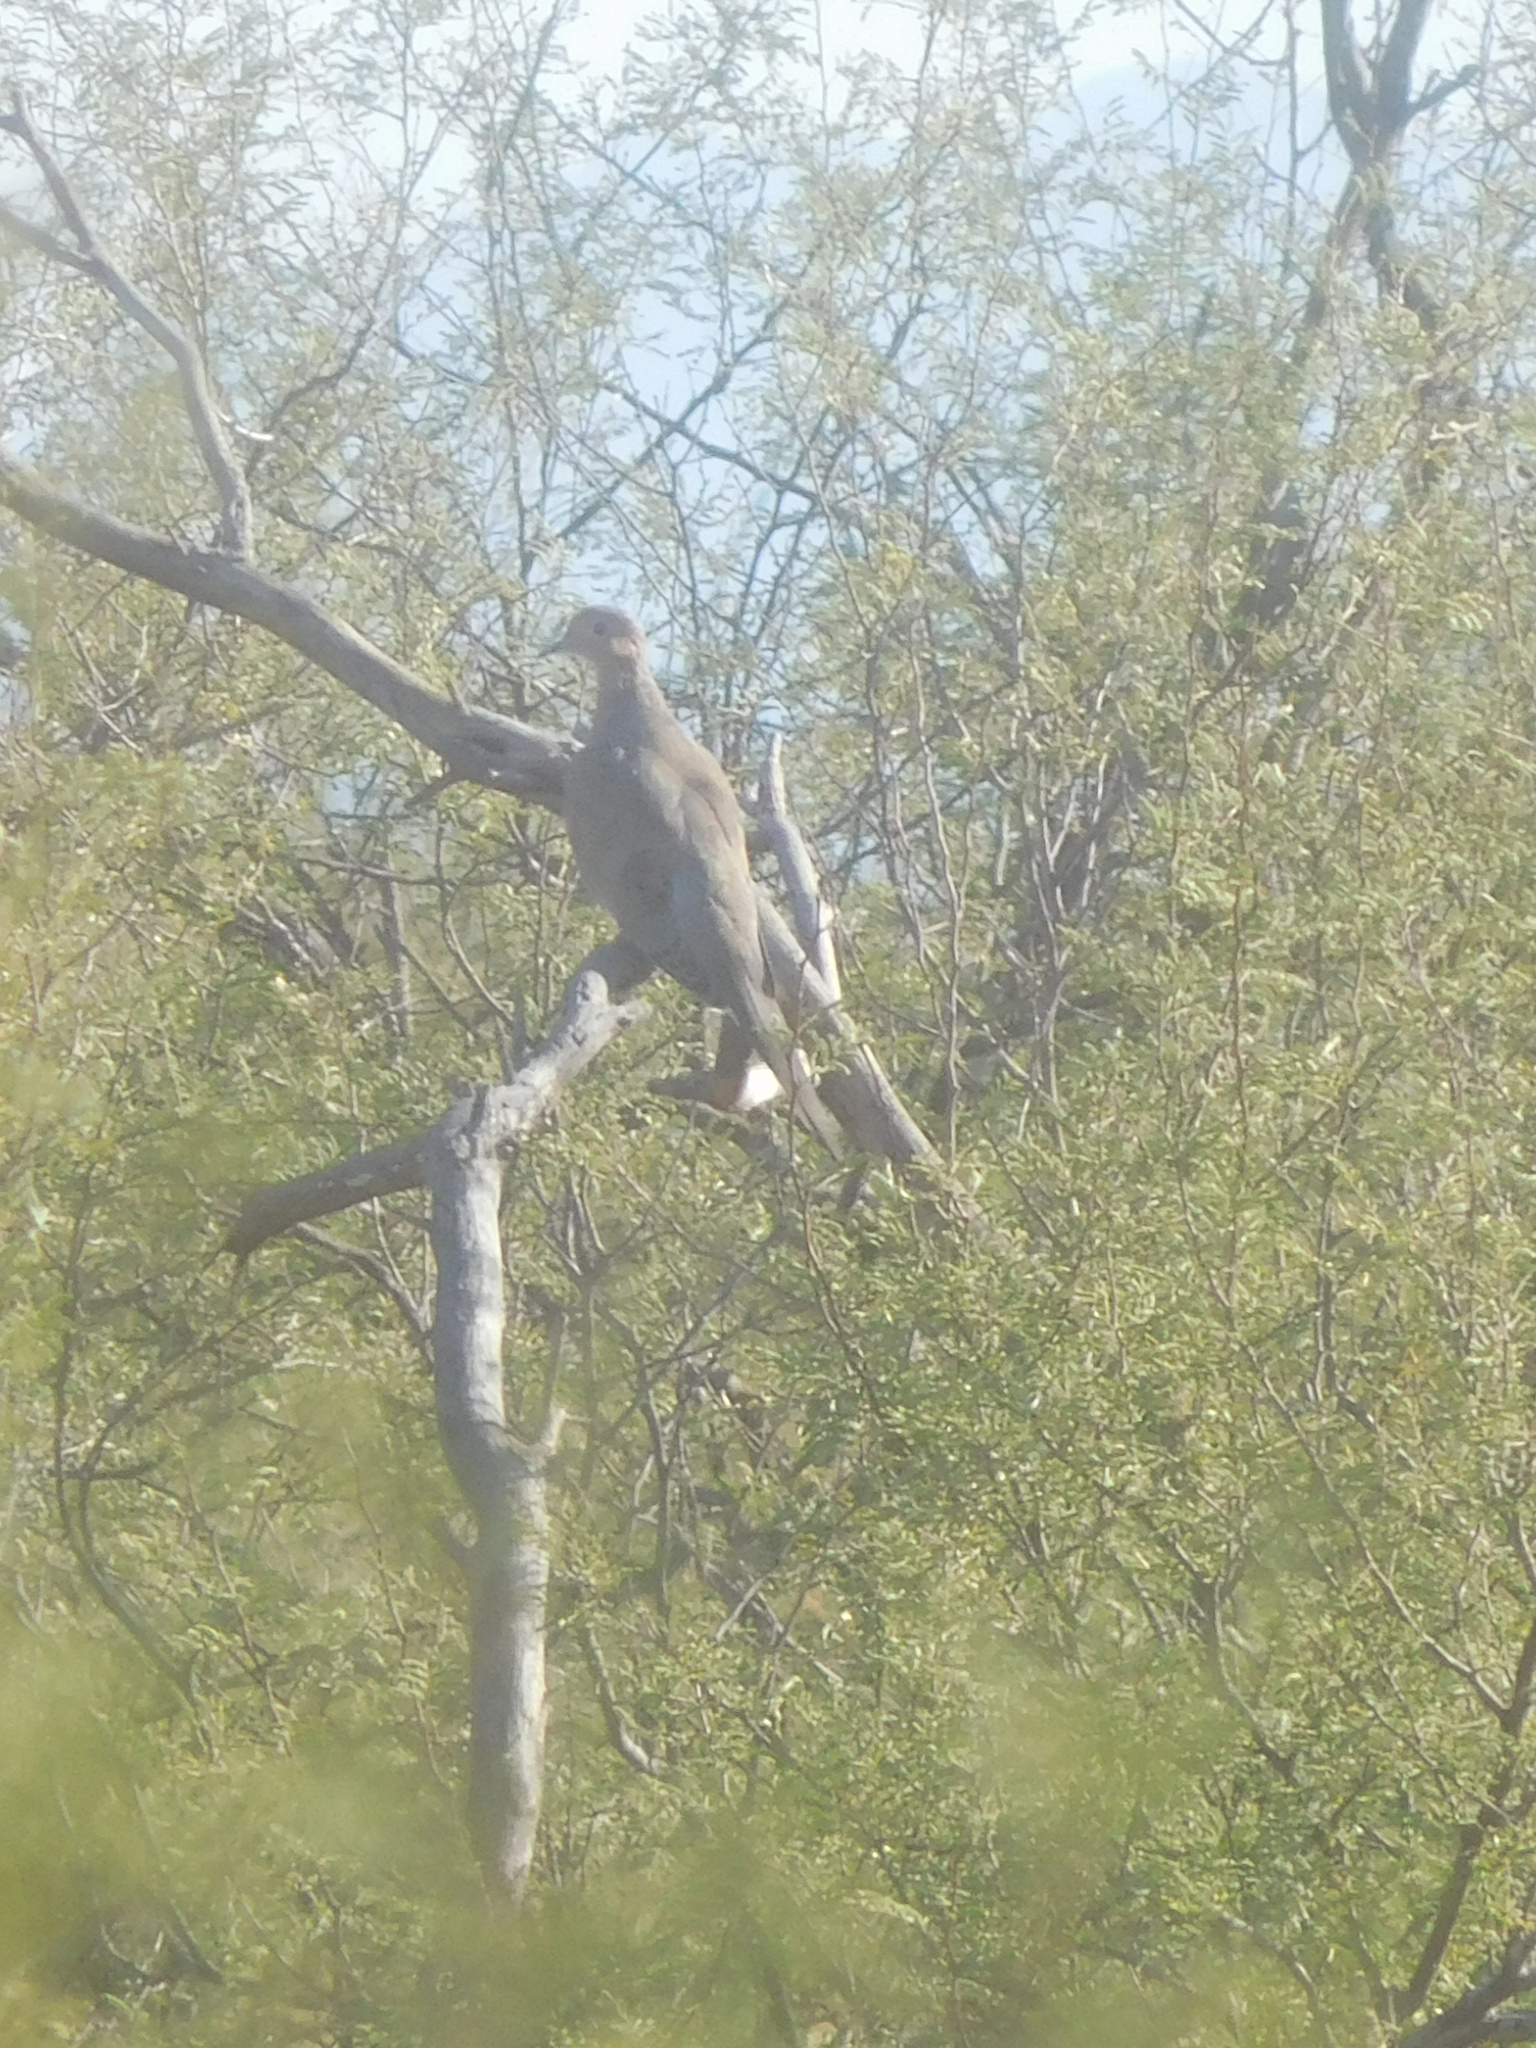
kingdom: Animalia
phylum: Chordata
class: Aves
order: Columbiformes
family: Columbidae
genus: Zenaida
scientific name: Zenaida macroura
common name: Mourning dove
